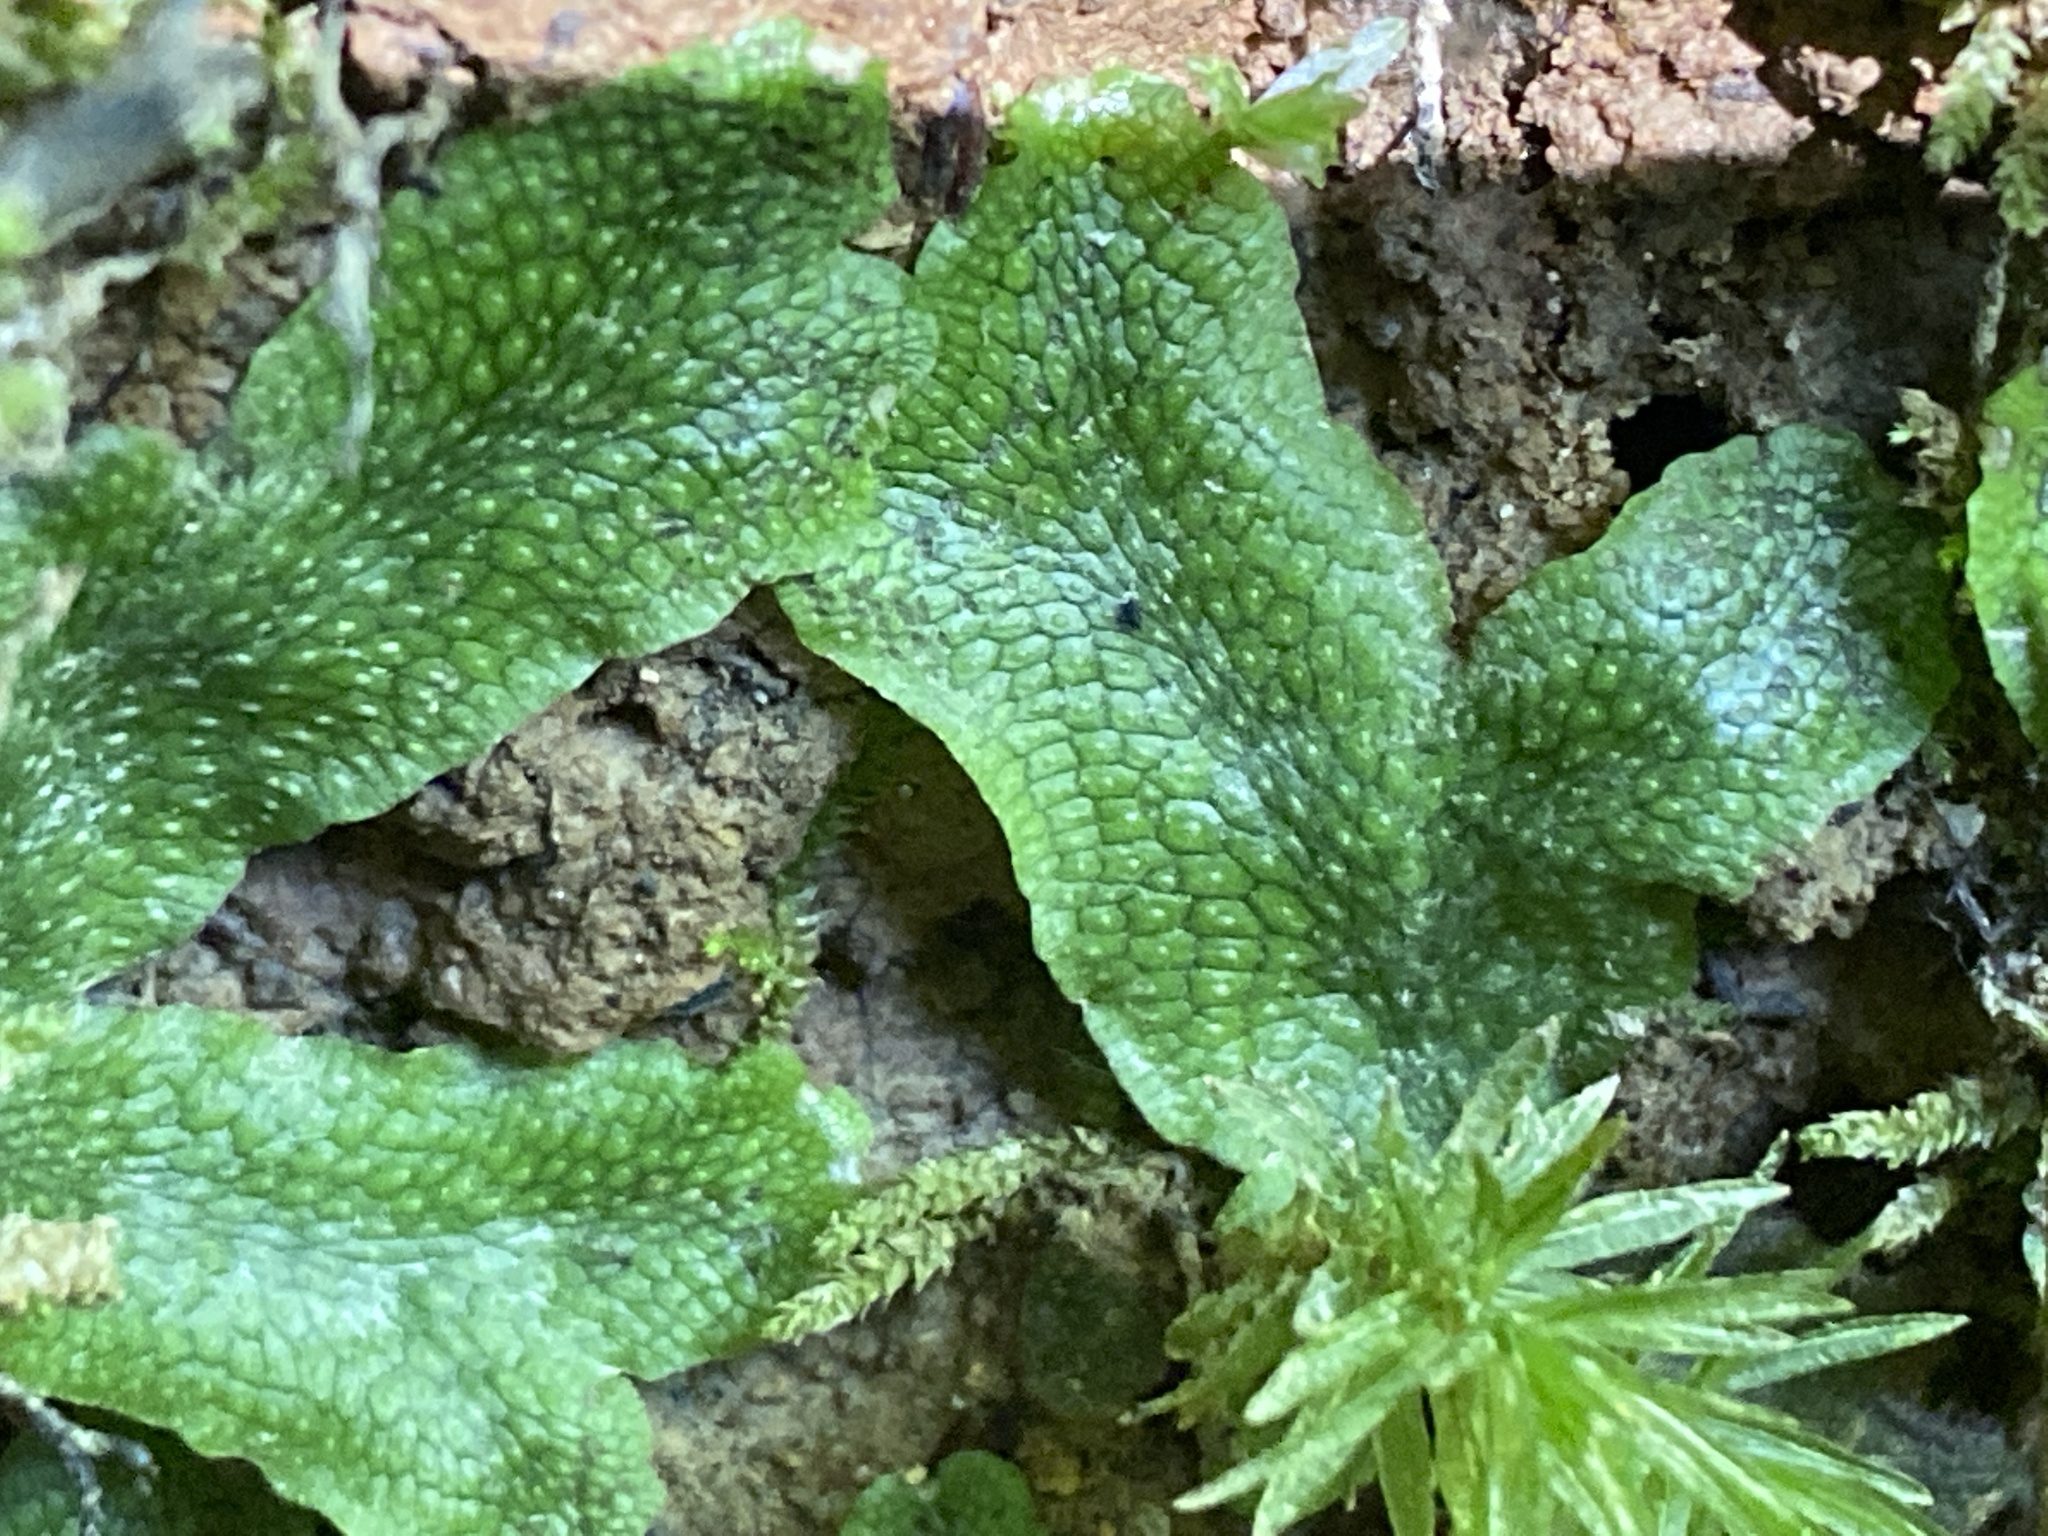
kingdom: Plantae
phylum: Marchantiophyta
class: Marchantiopsida
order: Marchantiales
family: Conocephalaceae
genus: Conocephalum
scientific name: Conocephalum salebrosum
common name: Cat-tongue liverwort
